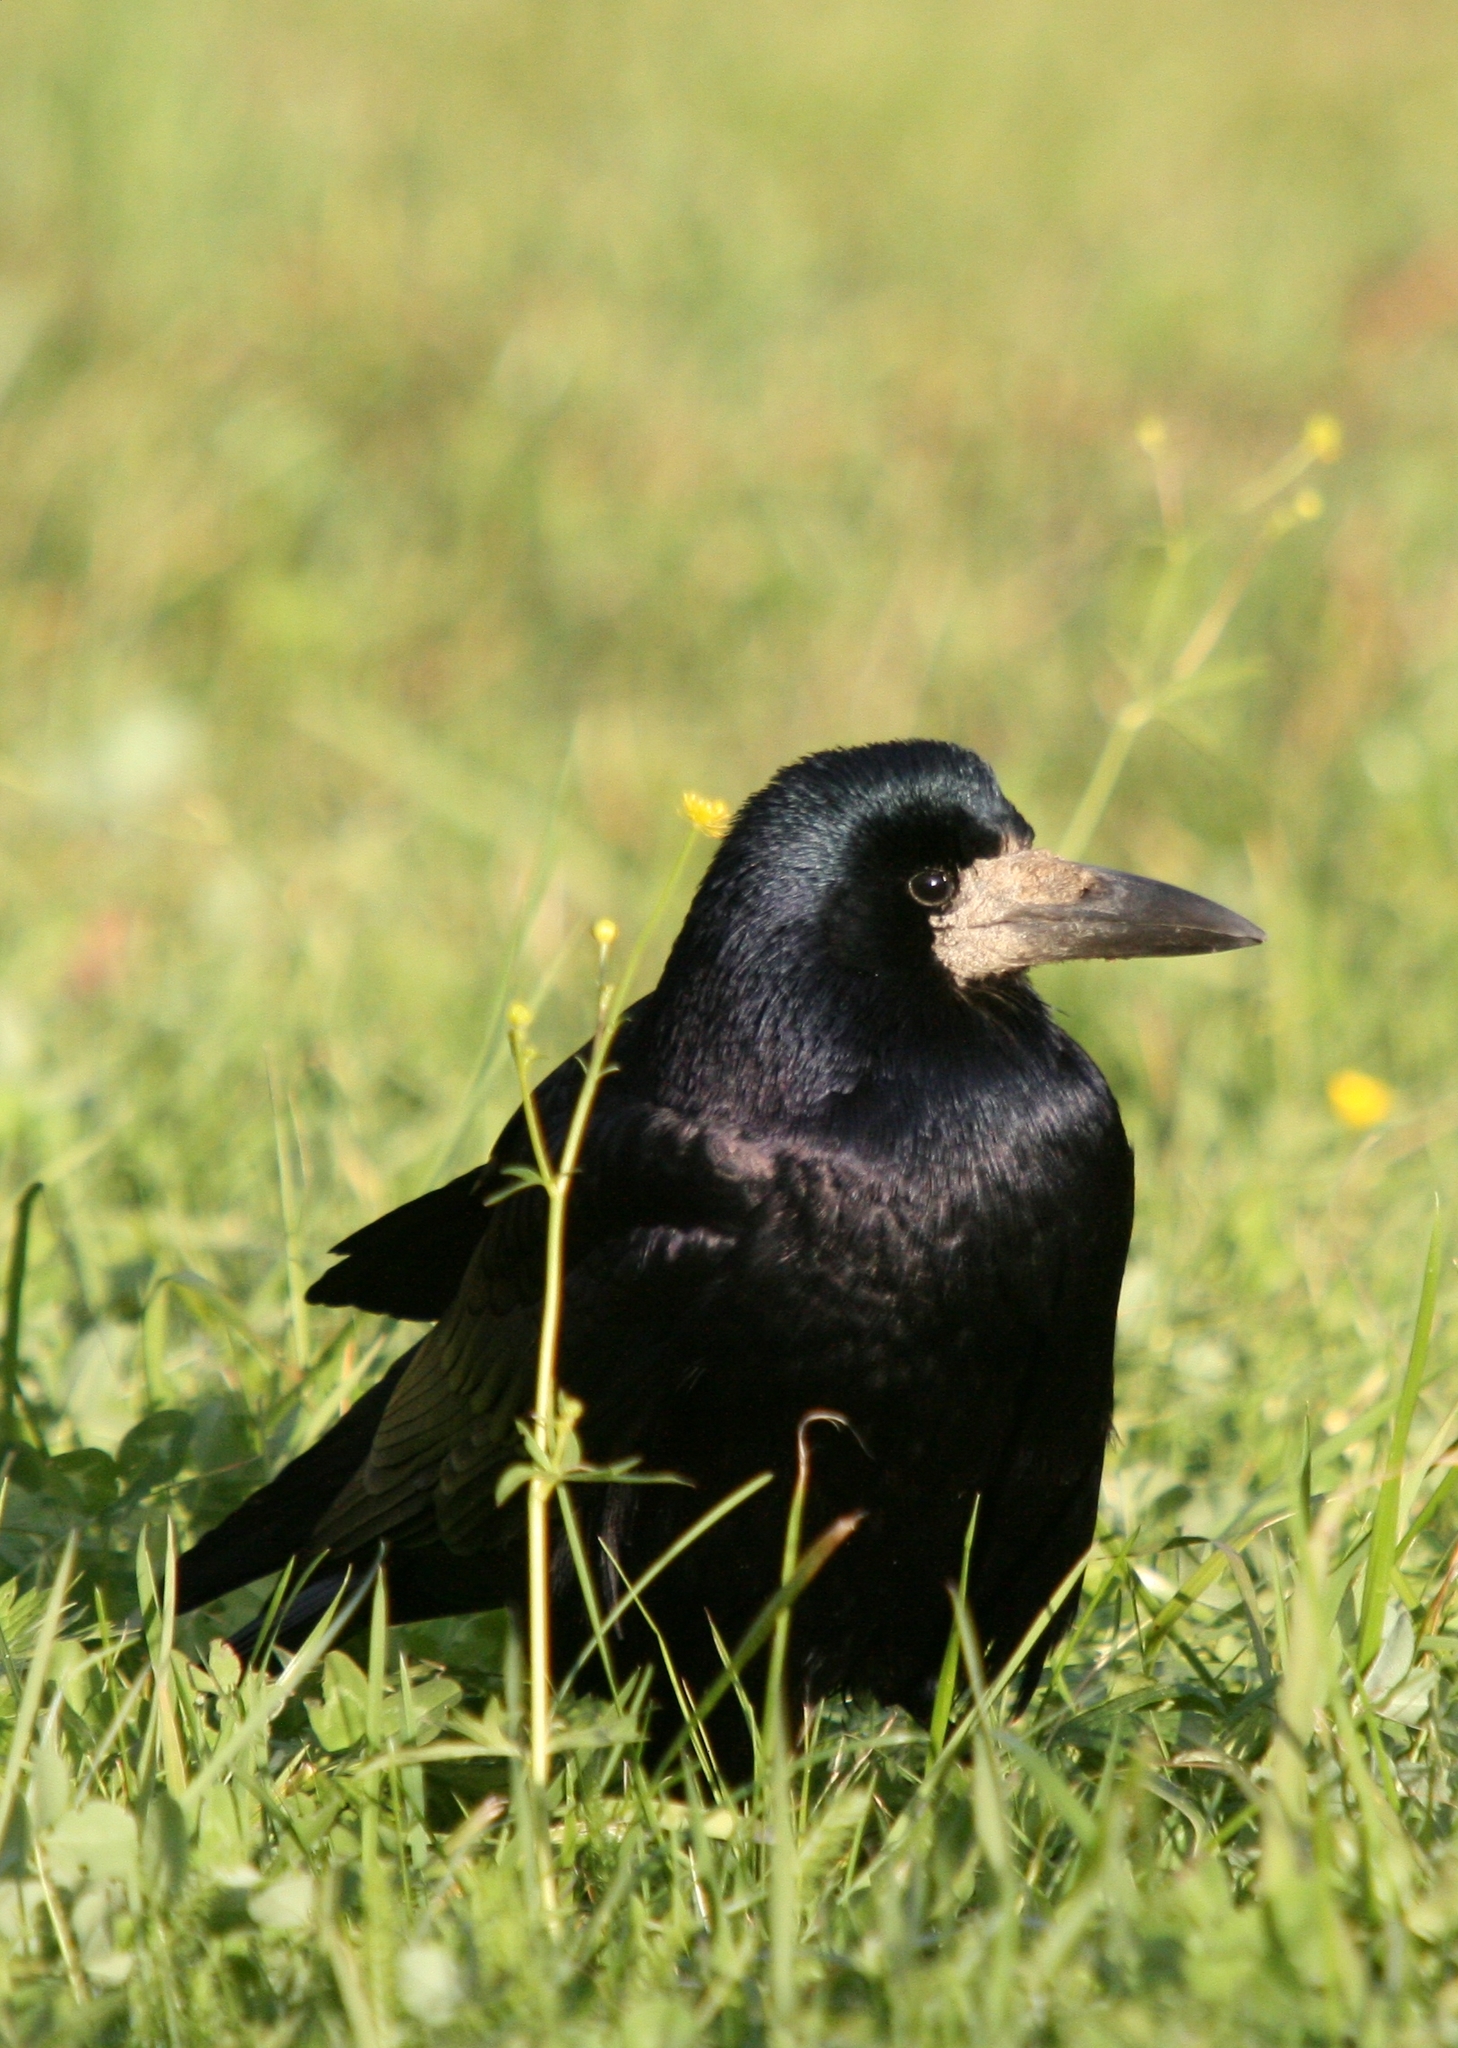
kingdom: Animalia
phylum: Chordata
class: Aves
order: Passeriformes
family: Corvidae
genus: Corvus
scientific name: Corvus frugilegus
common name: Rook
